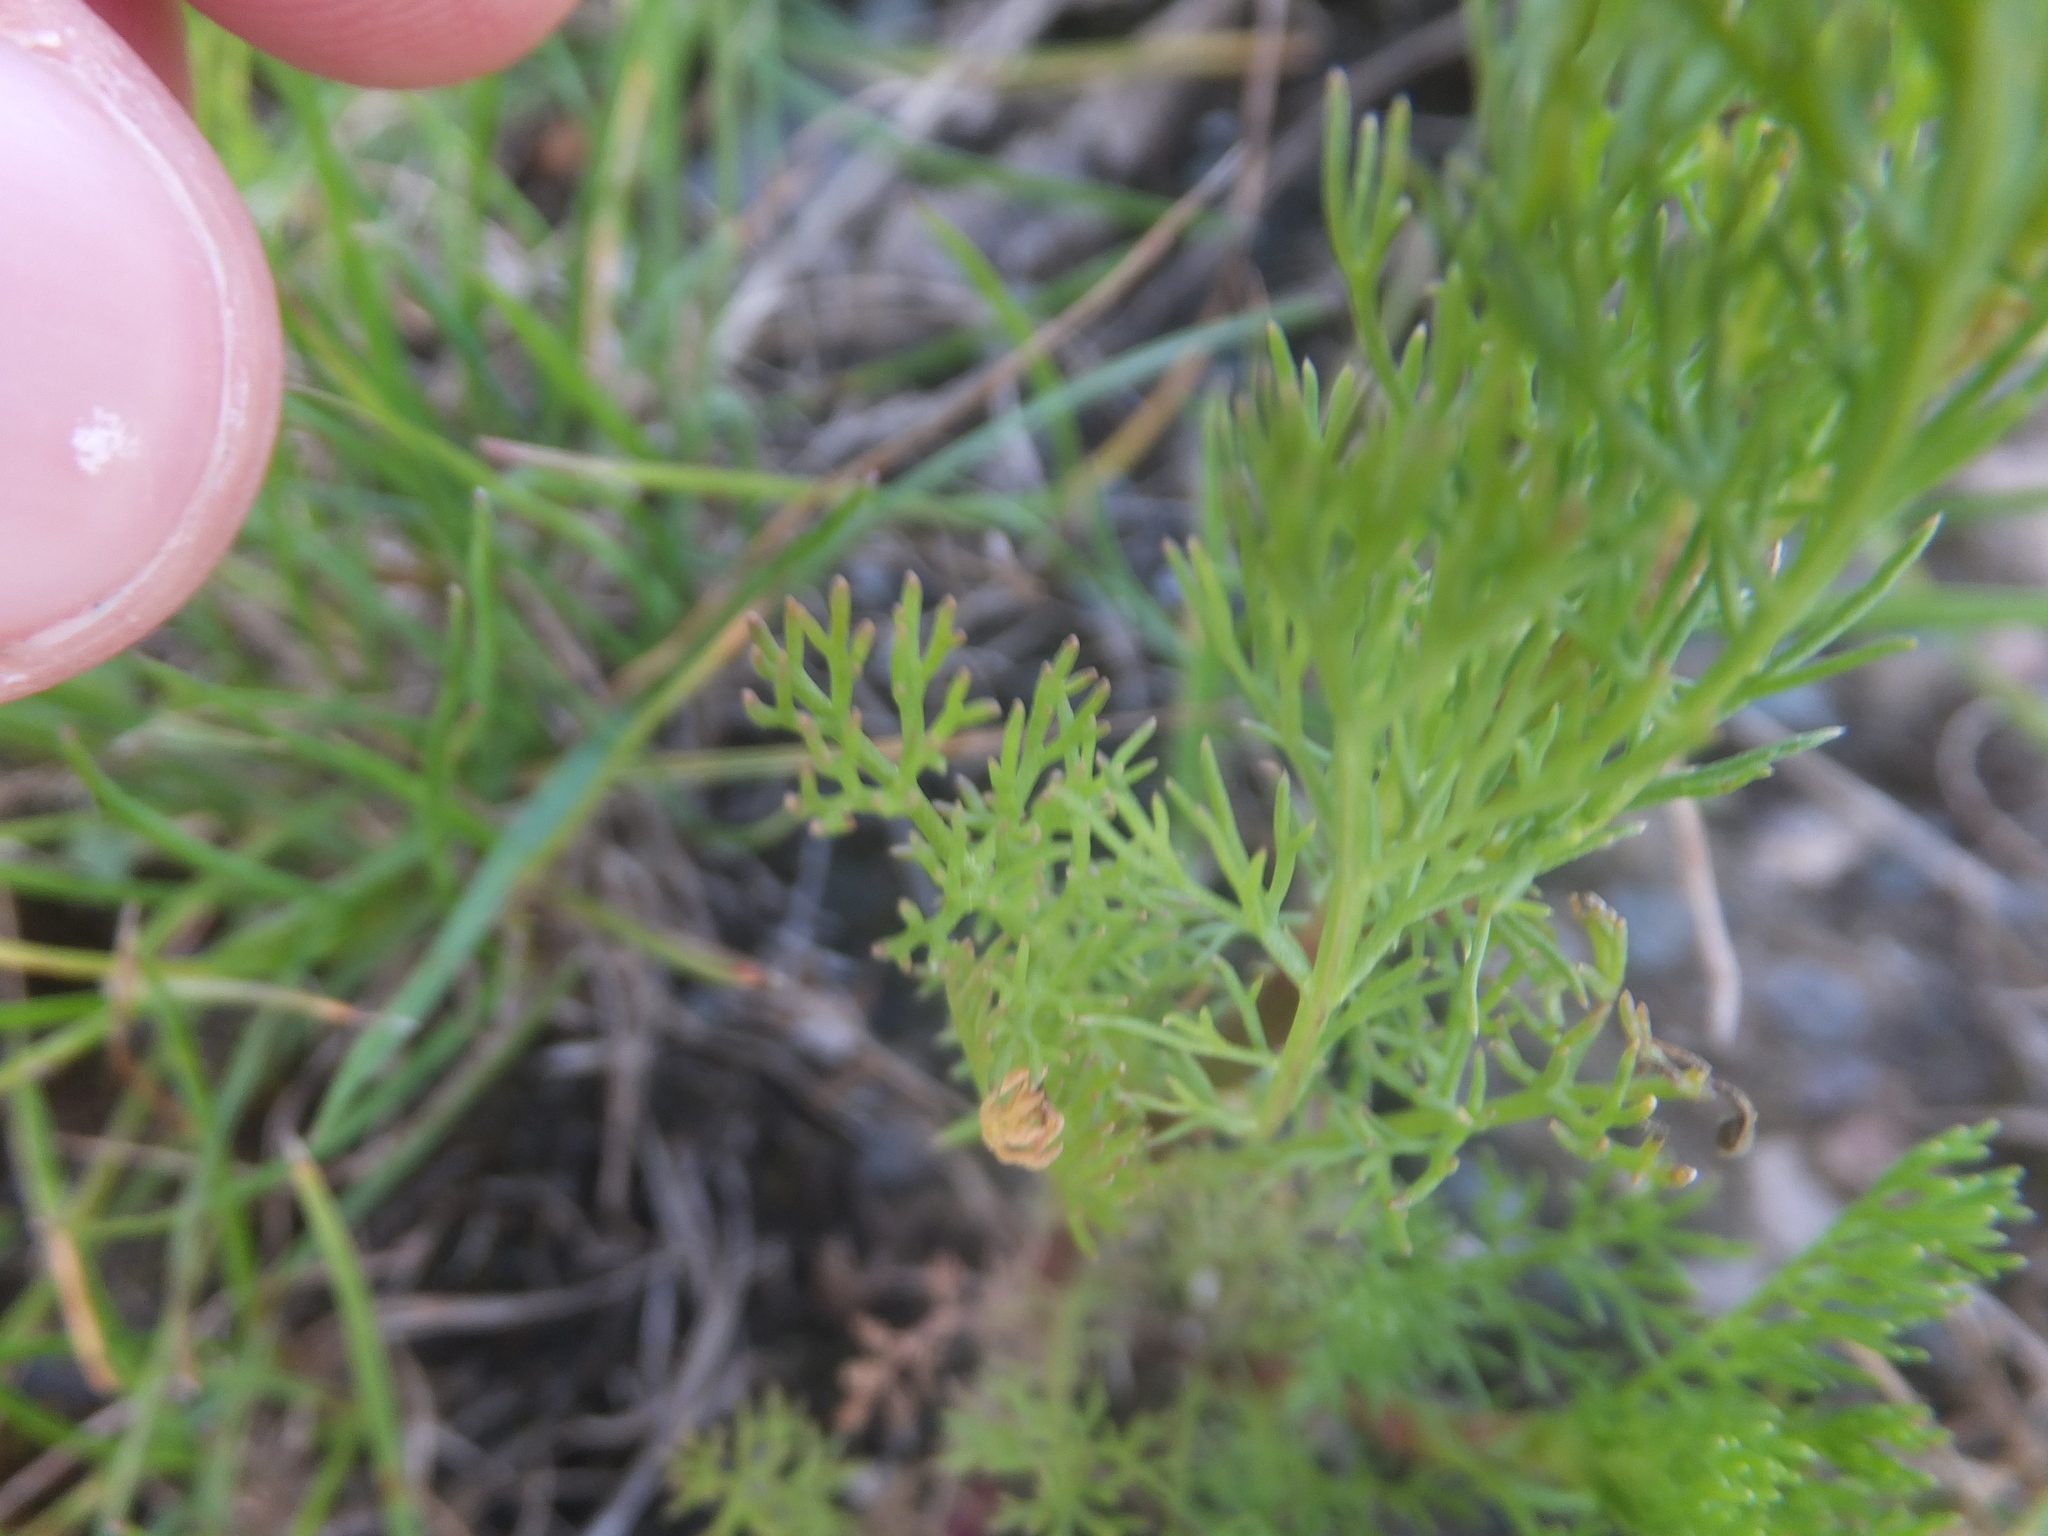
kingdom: Plantae
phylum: Tracheophyta
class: Magnoliopsida
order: Asterales
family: Asteraceae
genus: Tripleurospermum
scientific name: Tripleurospermum inodorum
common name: Scentless mayweed
